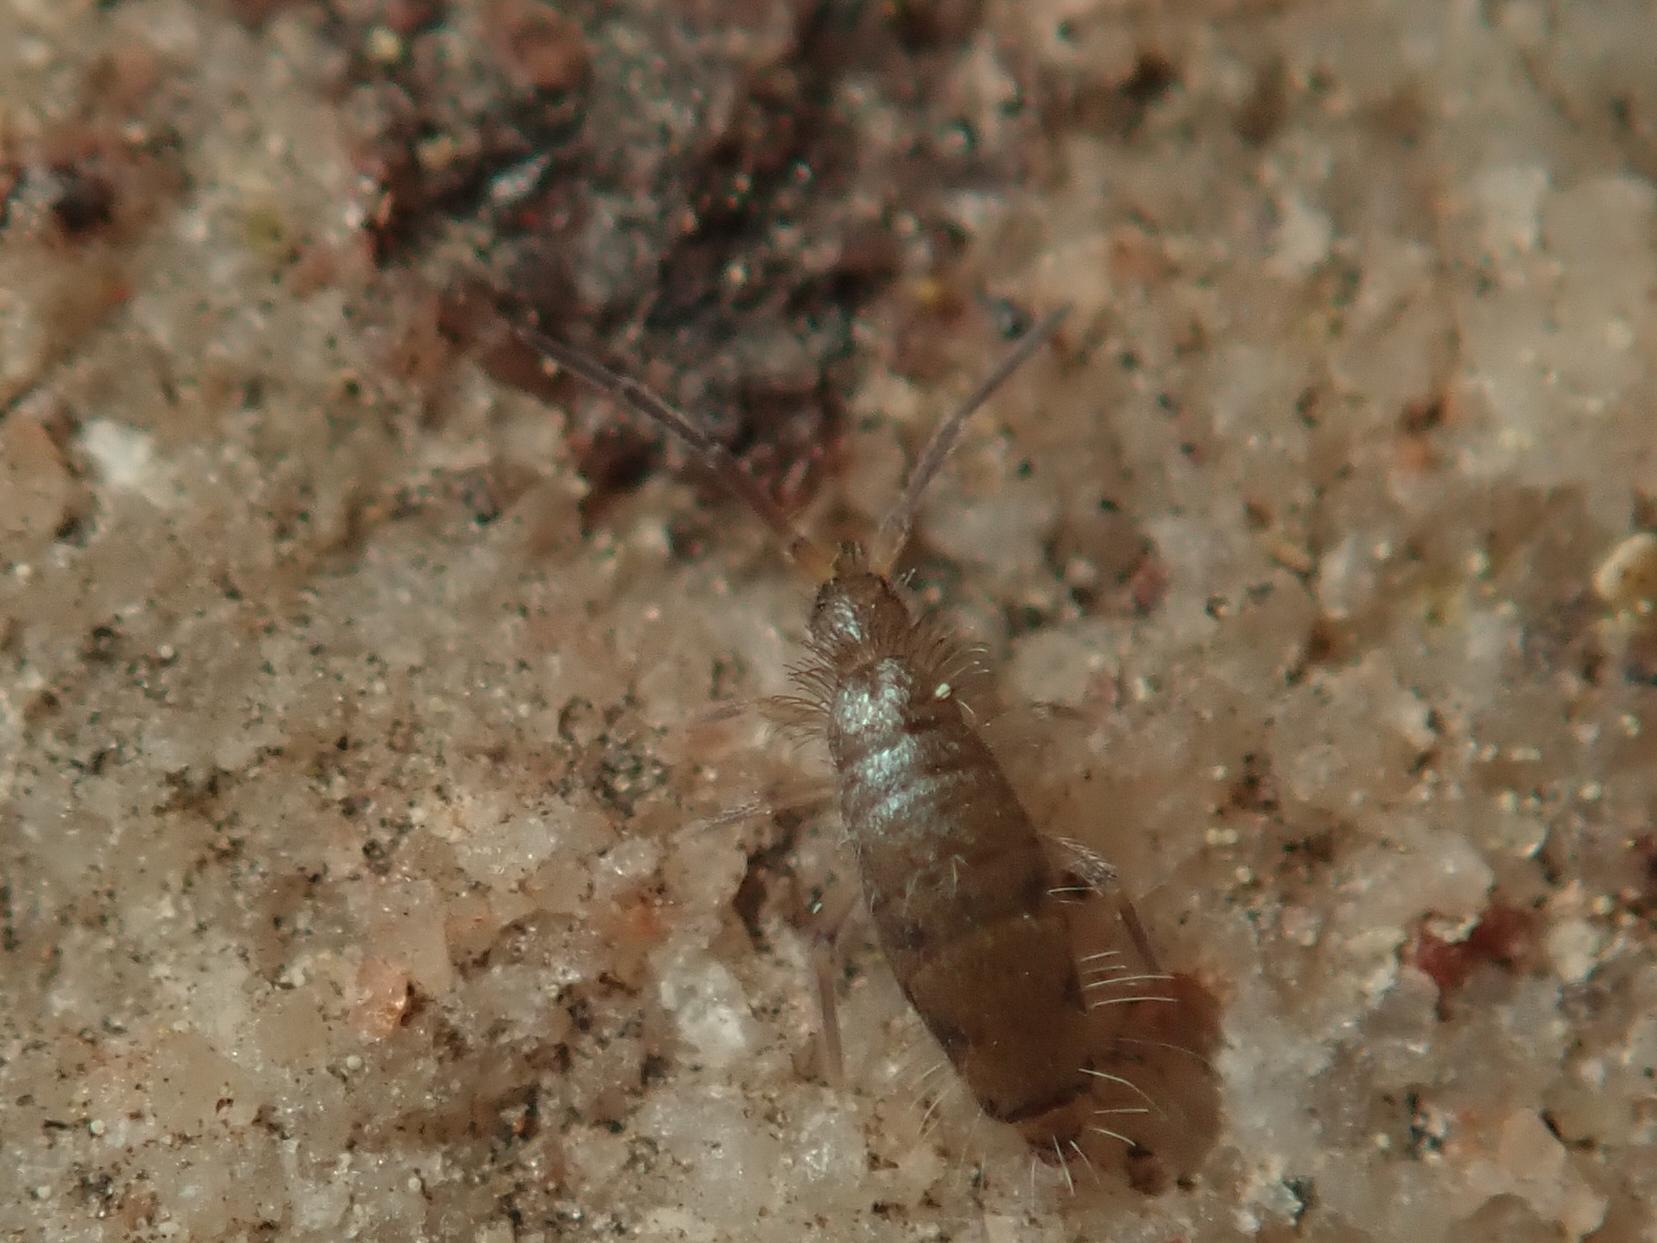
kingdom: Animalia
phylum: Arthropoda
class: Collembola
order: Entomobryomorpha
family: Entomobryidae
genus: Willowsia
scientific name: Willowsia nigromaculata
